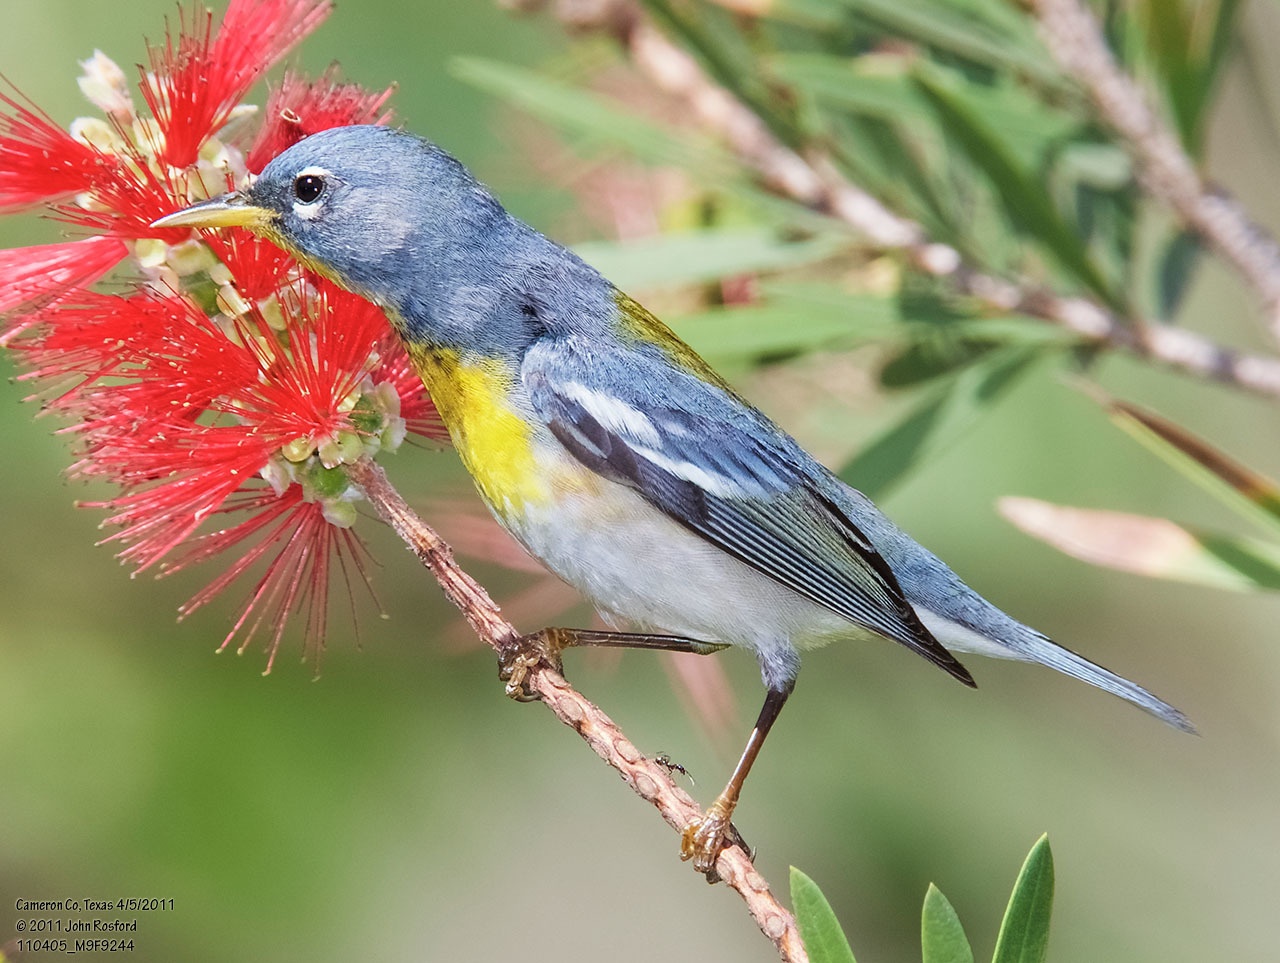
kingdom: Animalia
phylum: Chordata
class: Aves
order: Passeriformes
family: Parulidae
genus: Setophaga
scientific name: Setophaga americana
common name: Northern parula
